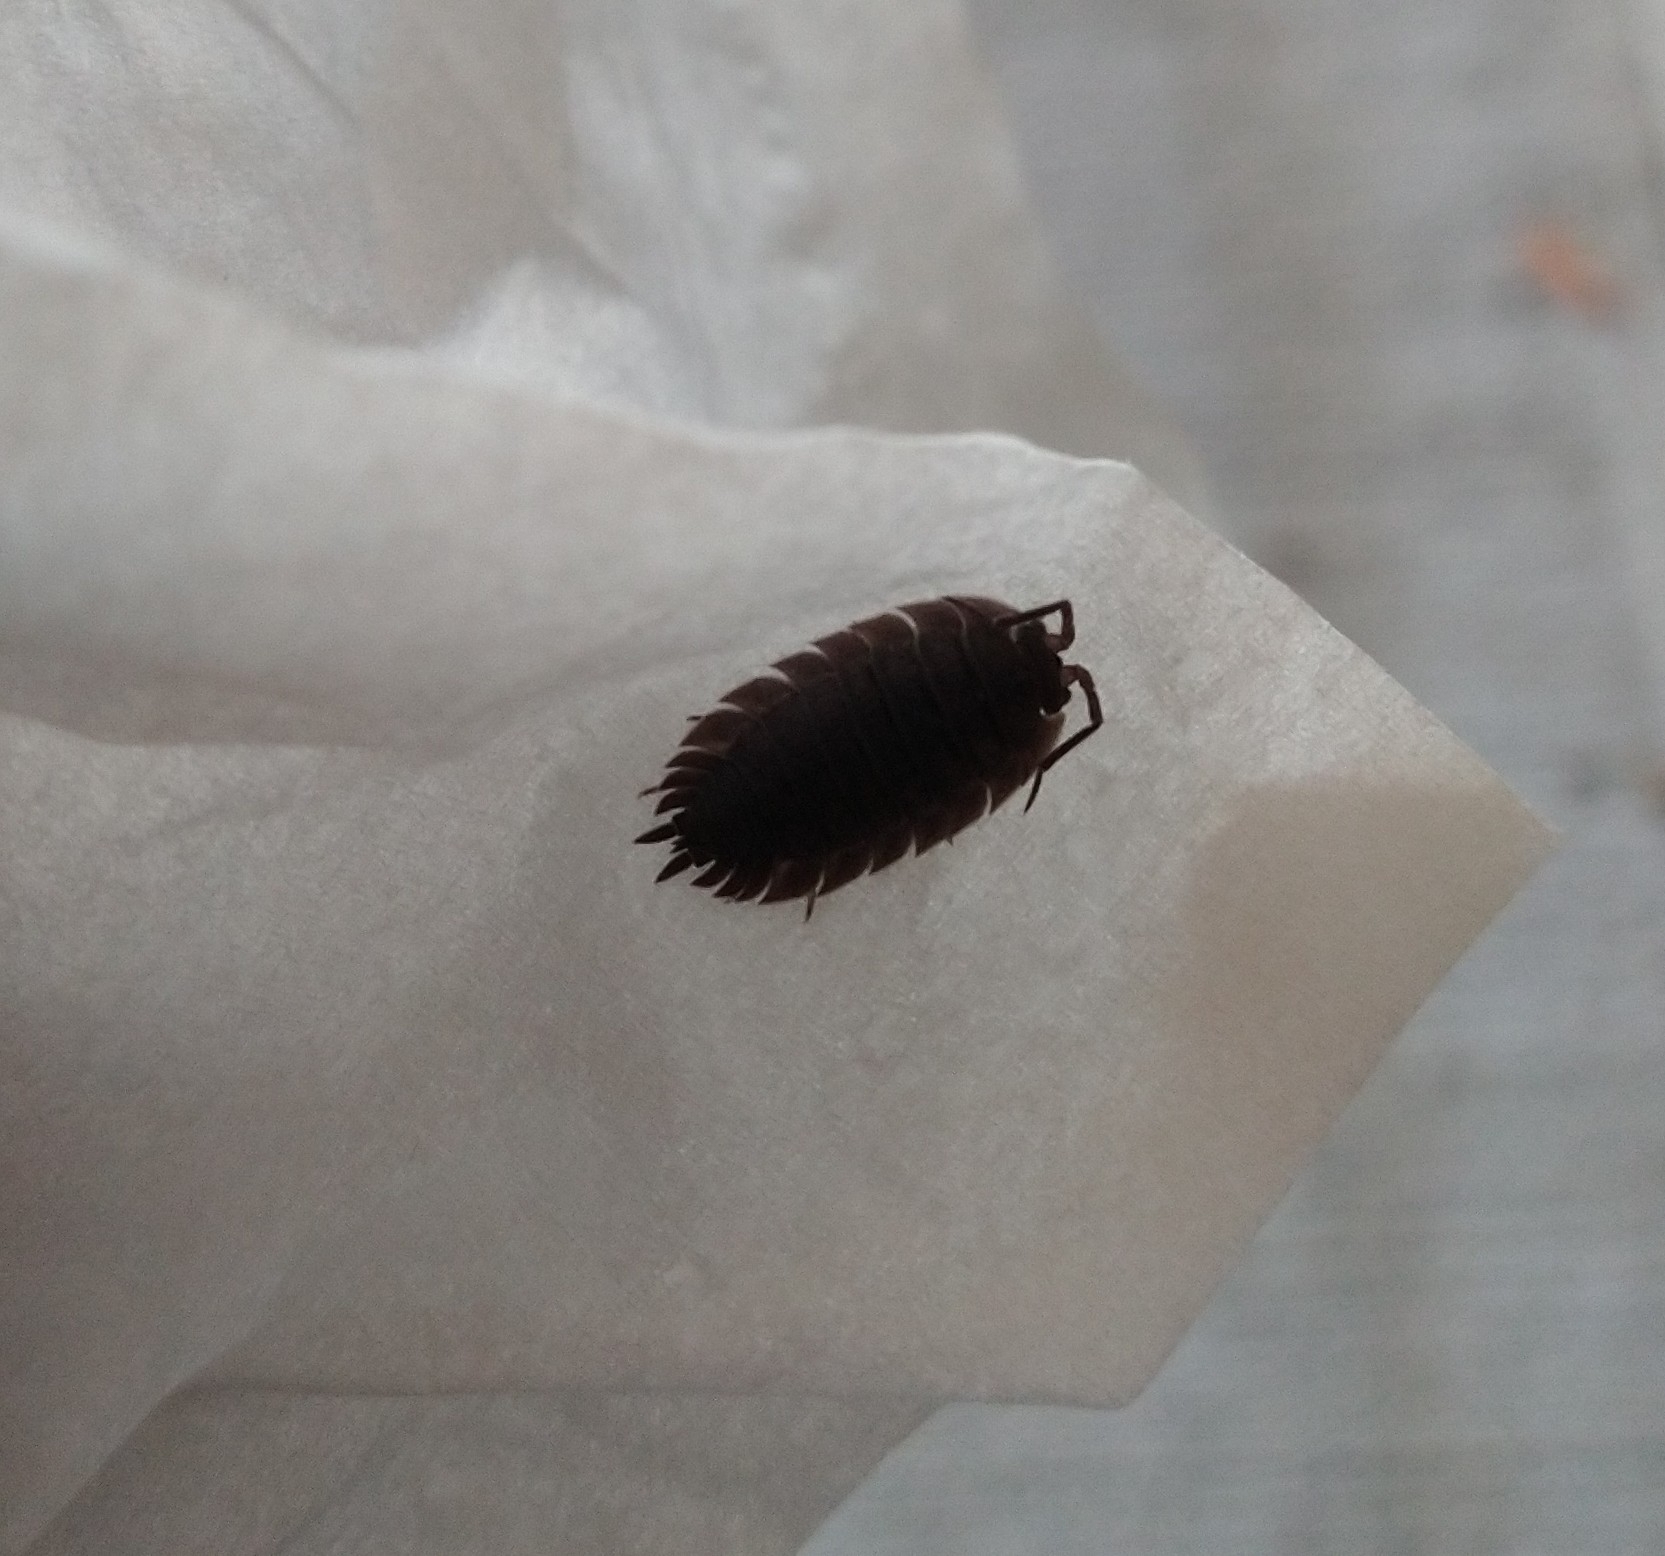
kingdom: Animalia
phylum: Arthropoda
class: Malacostraca
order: Isopoda
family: Porcellionidae
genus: Porcellio
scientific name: Porcellio scaber
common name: Common rough woodlouse
